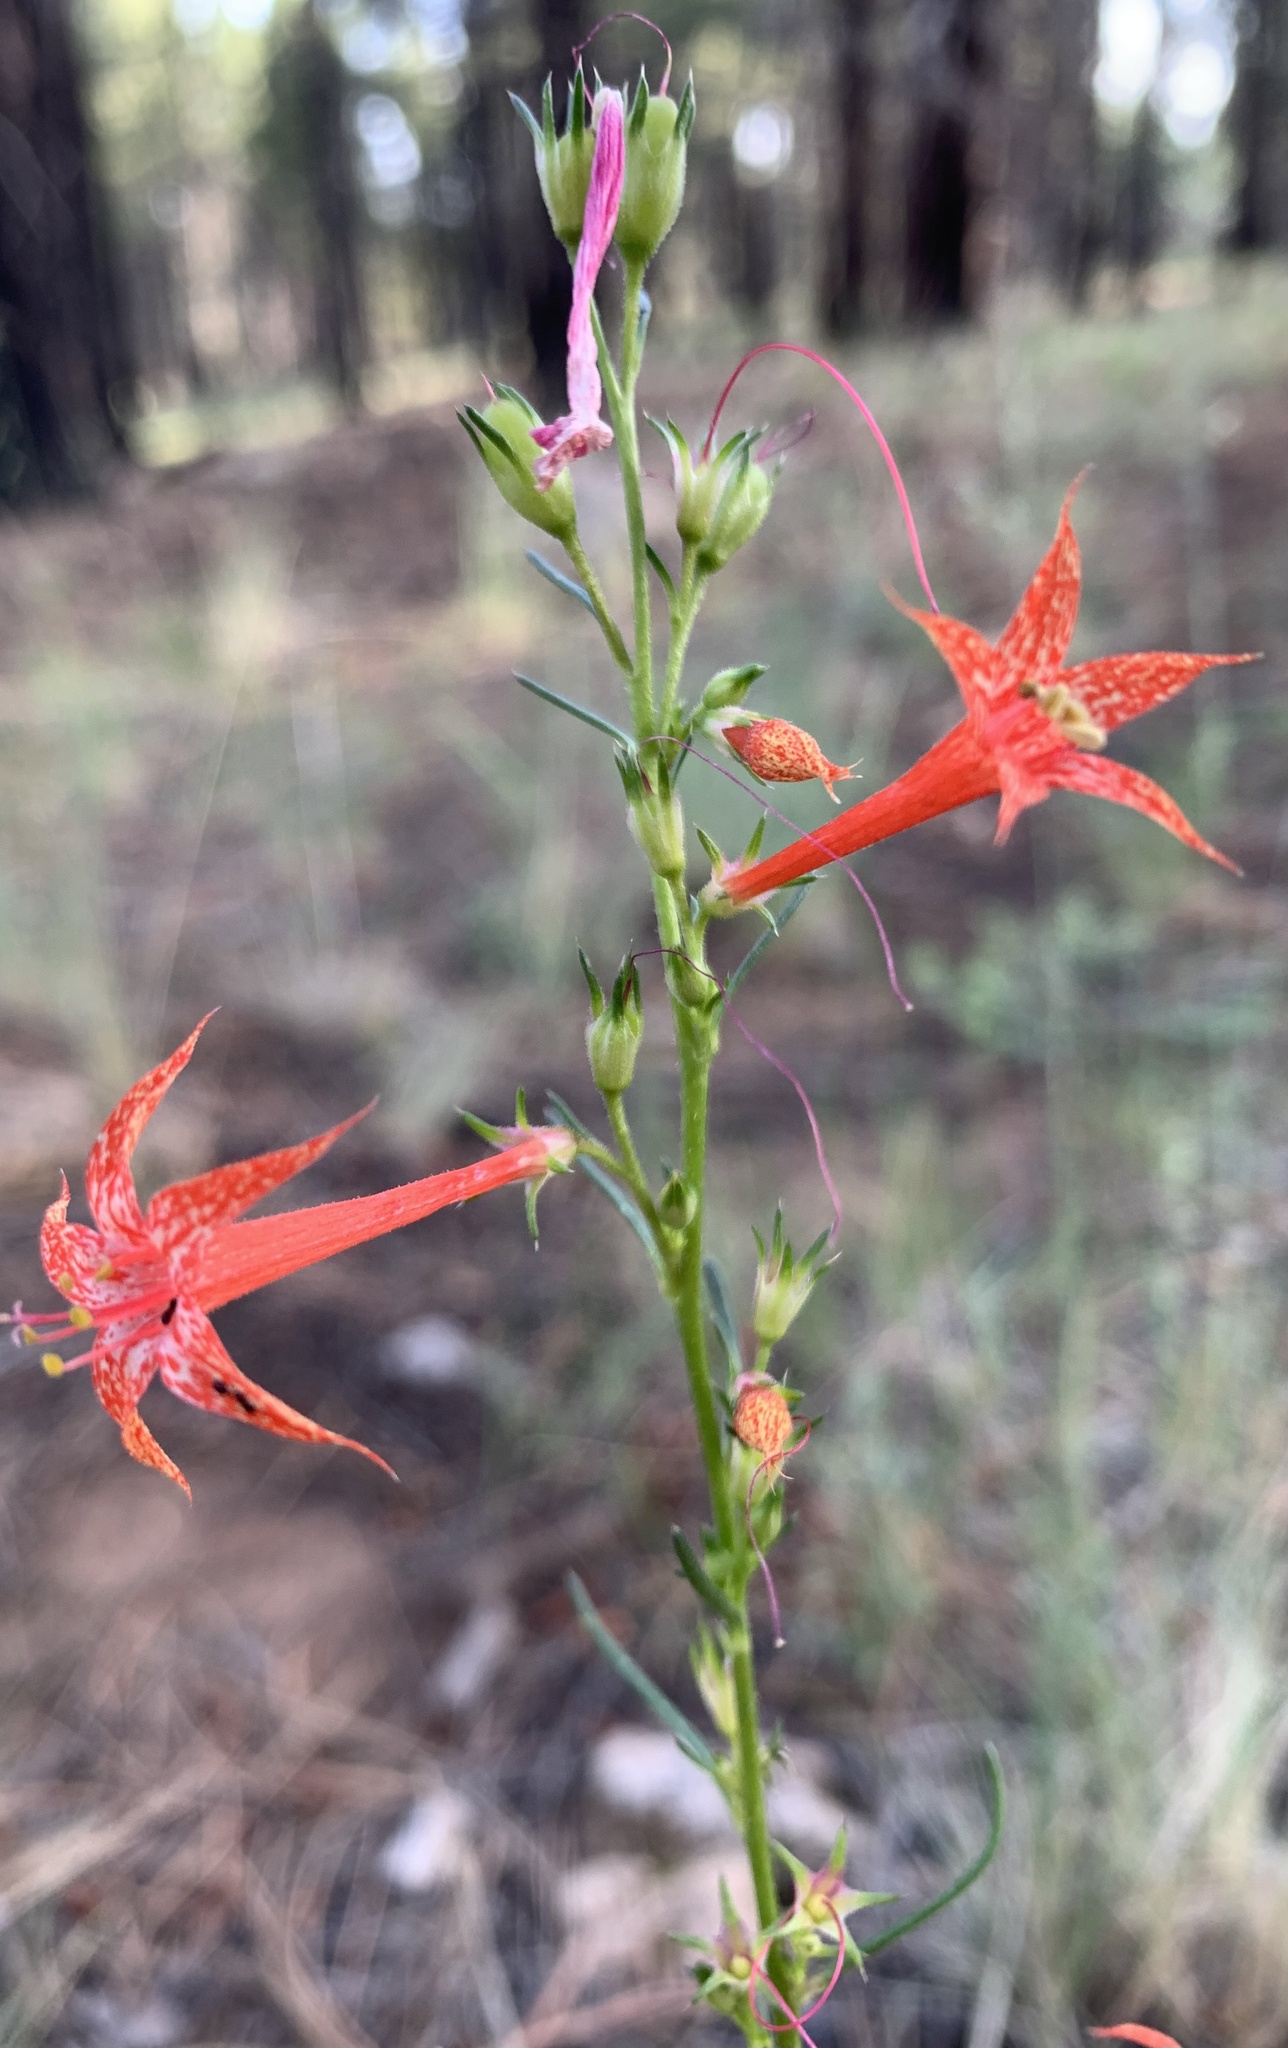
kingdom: Plantae
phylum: Tracheophyta
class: Magnoliopsida
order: Ericales
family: Polemoniaceae
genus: Ipomopsis
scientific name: Ipomopsis aggregata
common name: Scarlet gilia
